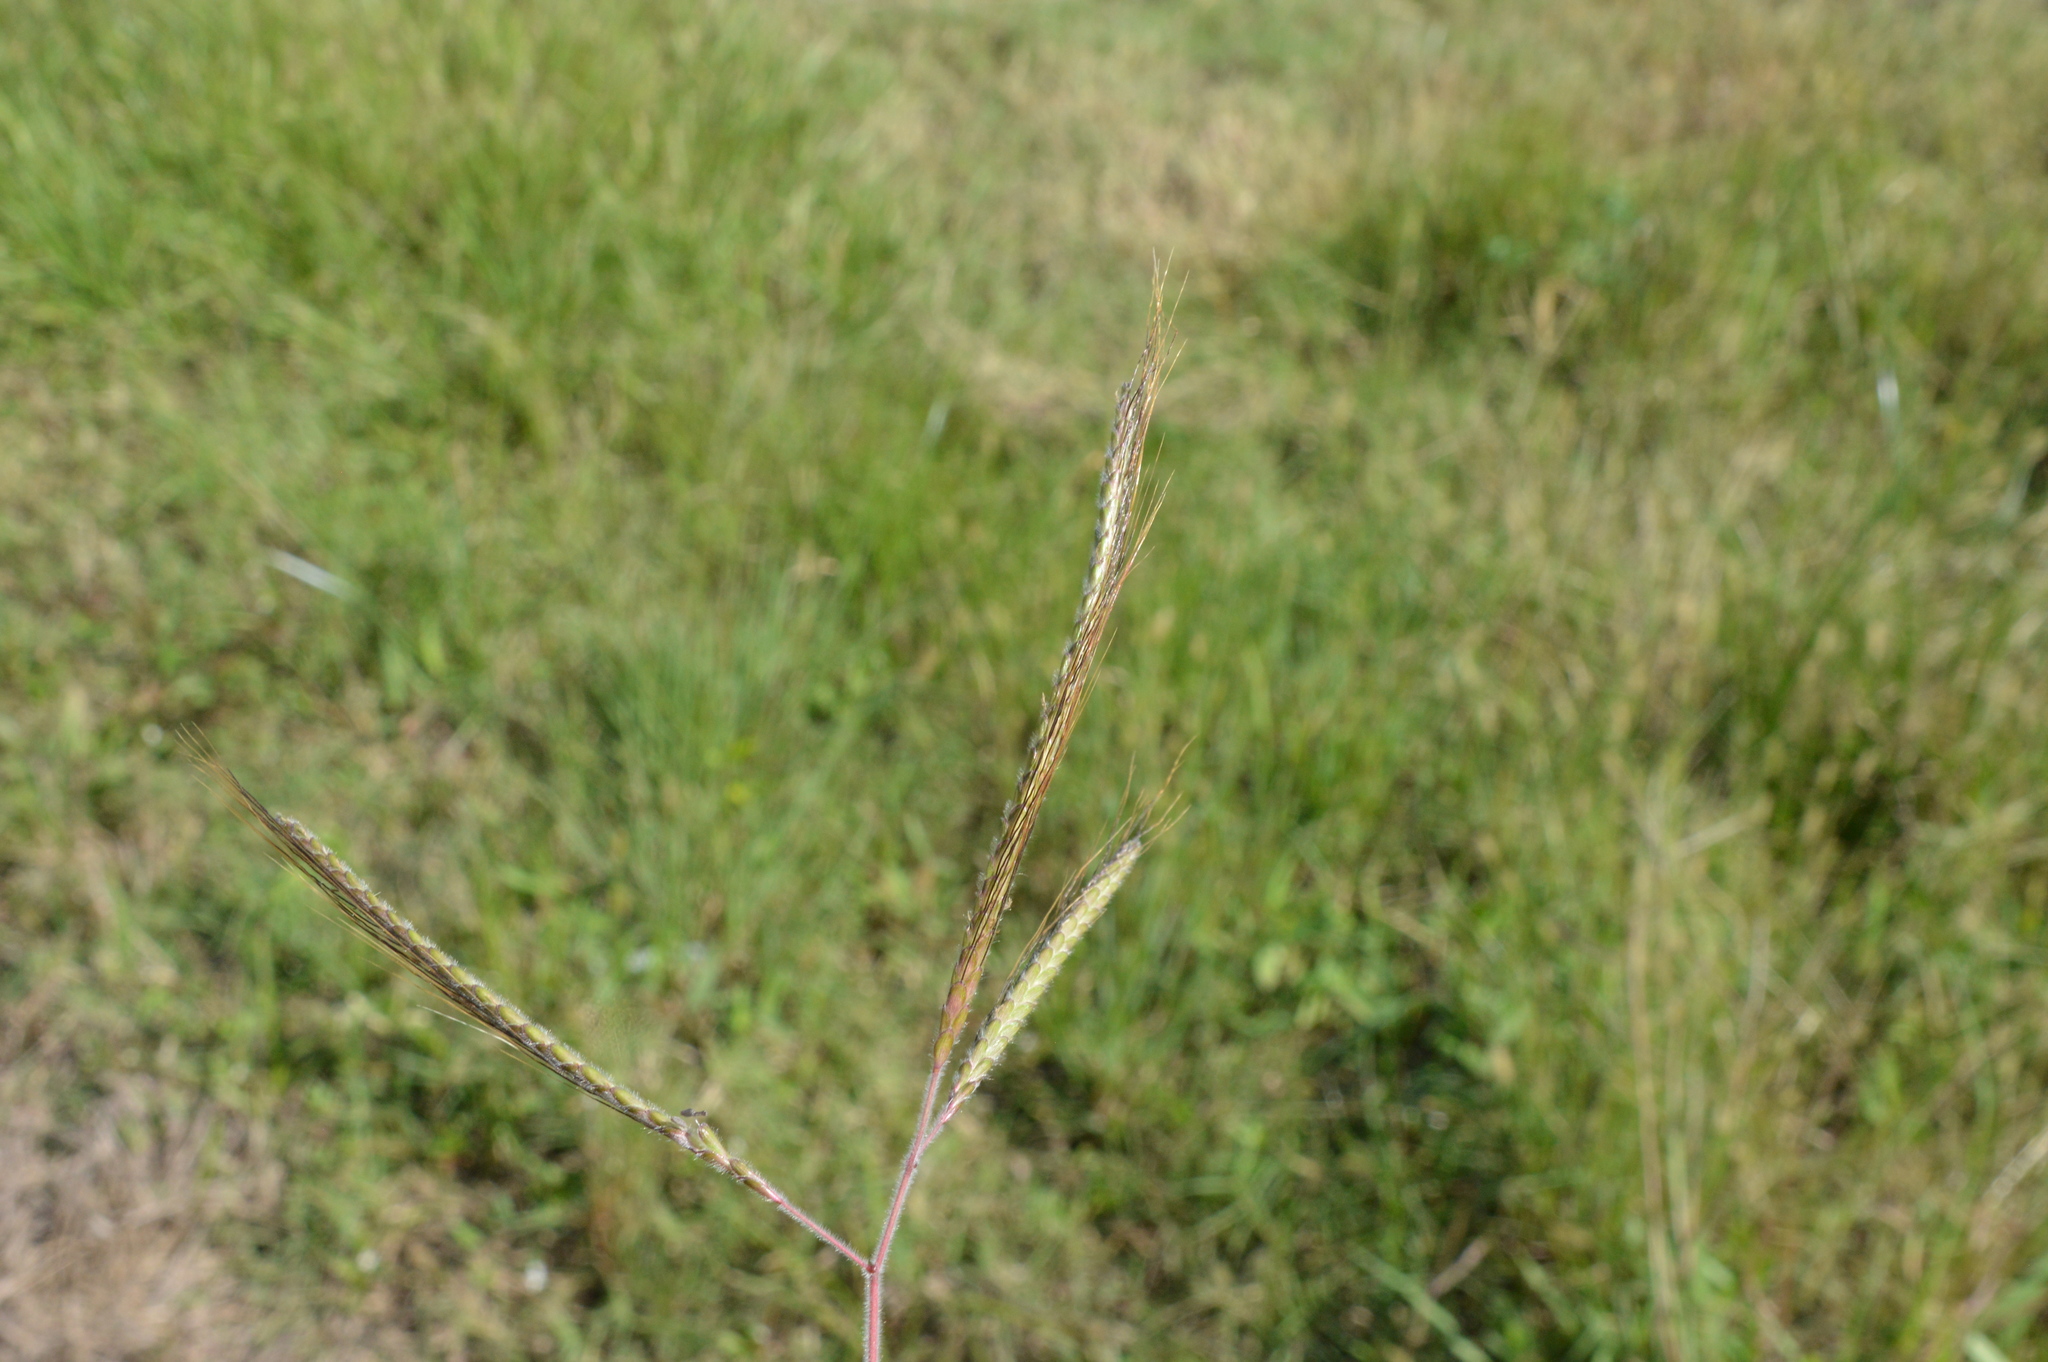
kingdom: Plantae
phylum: Tracheophyta
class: Liliopsida
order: Poales
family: Poaceae
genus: Dichanthium
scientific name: Dichanthium aristatum
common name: Angleton bluestem
